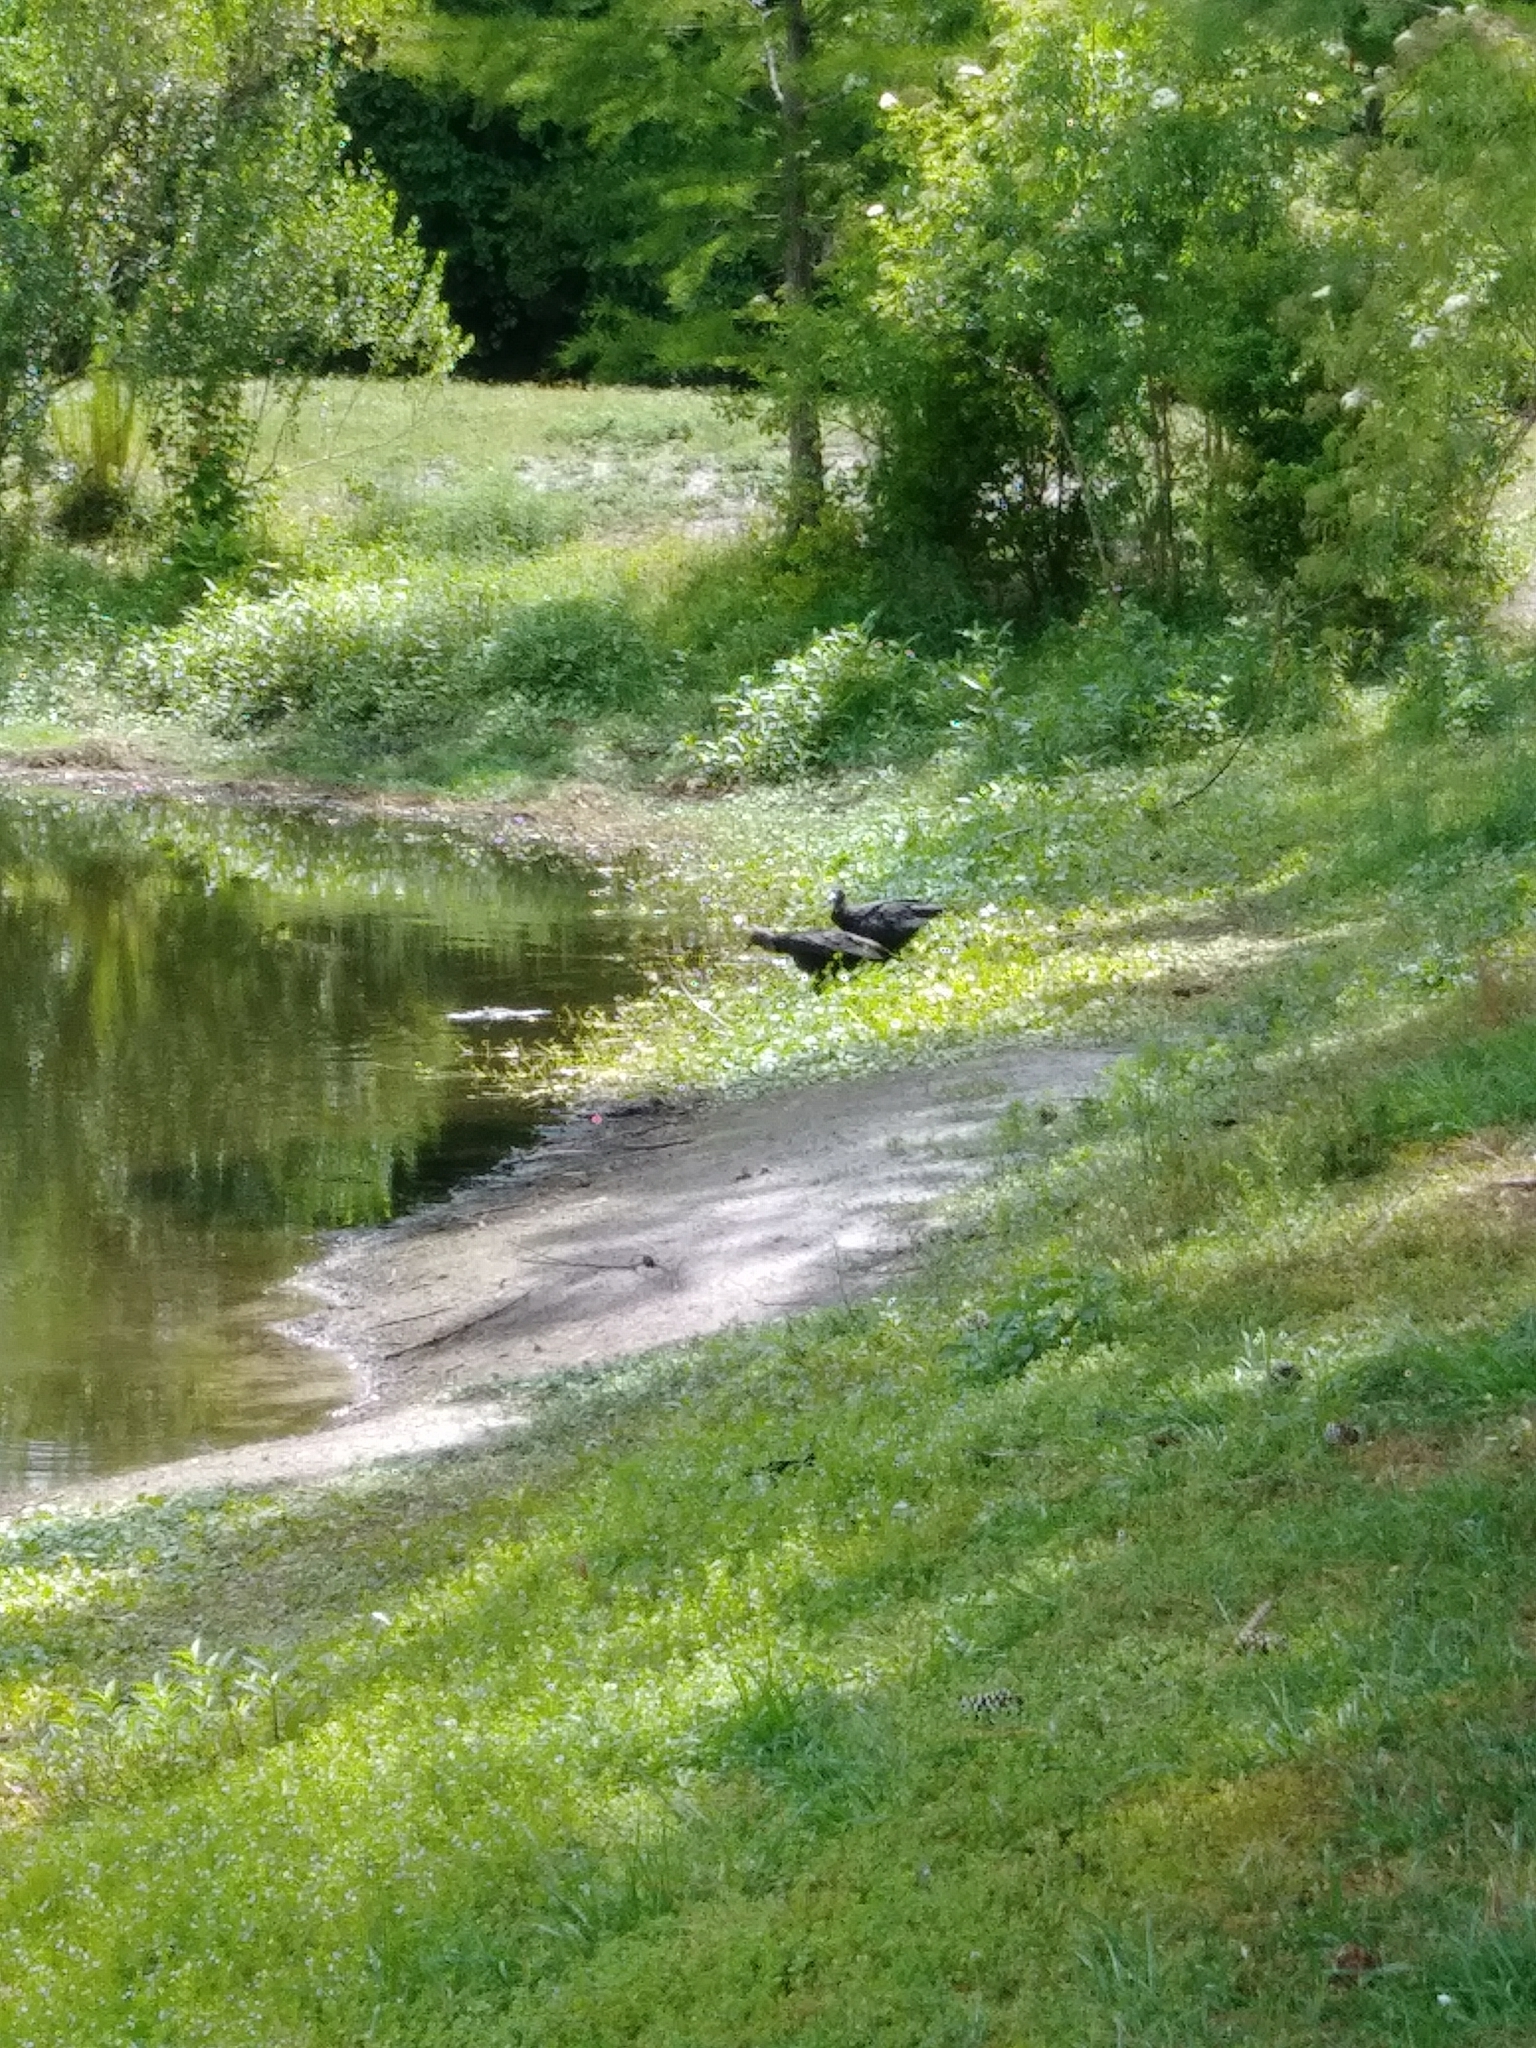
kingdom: Animalia
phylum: Chordata
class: Aves
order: Accipitriformes
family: Cathartidae
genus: Coragyps
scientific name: Coragyps atratus
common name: Black vulture
